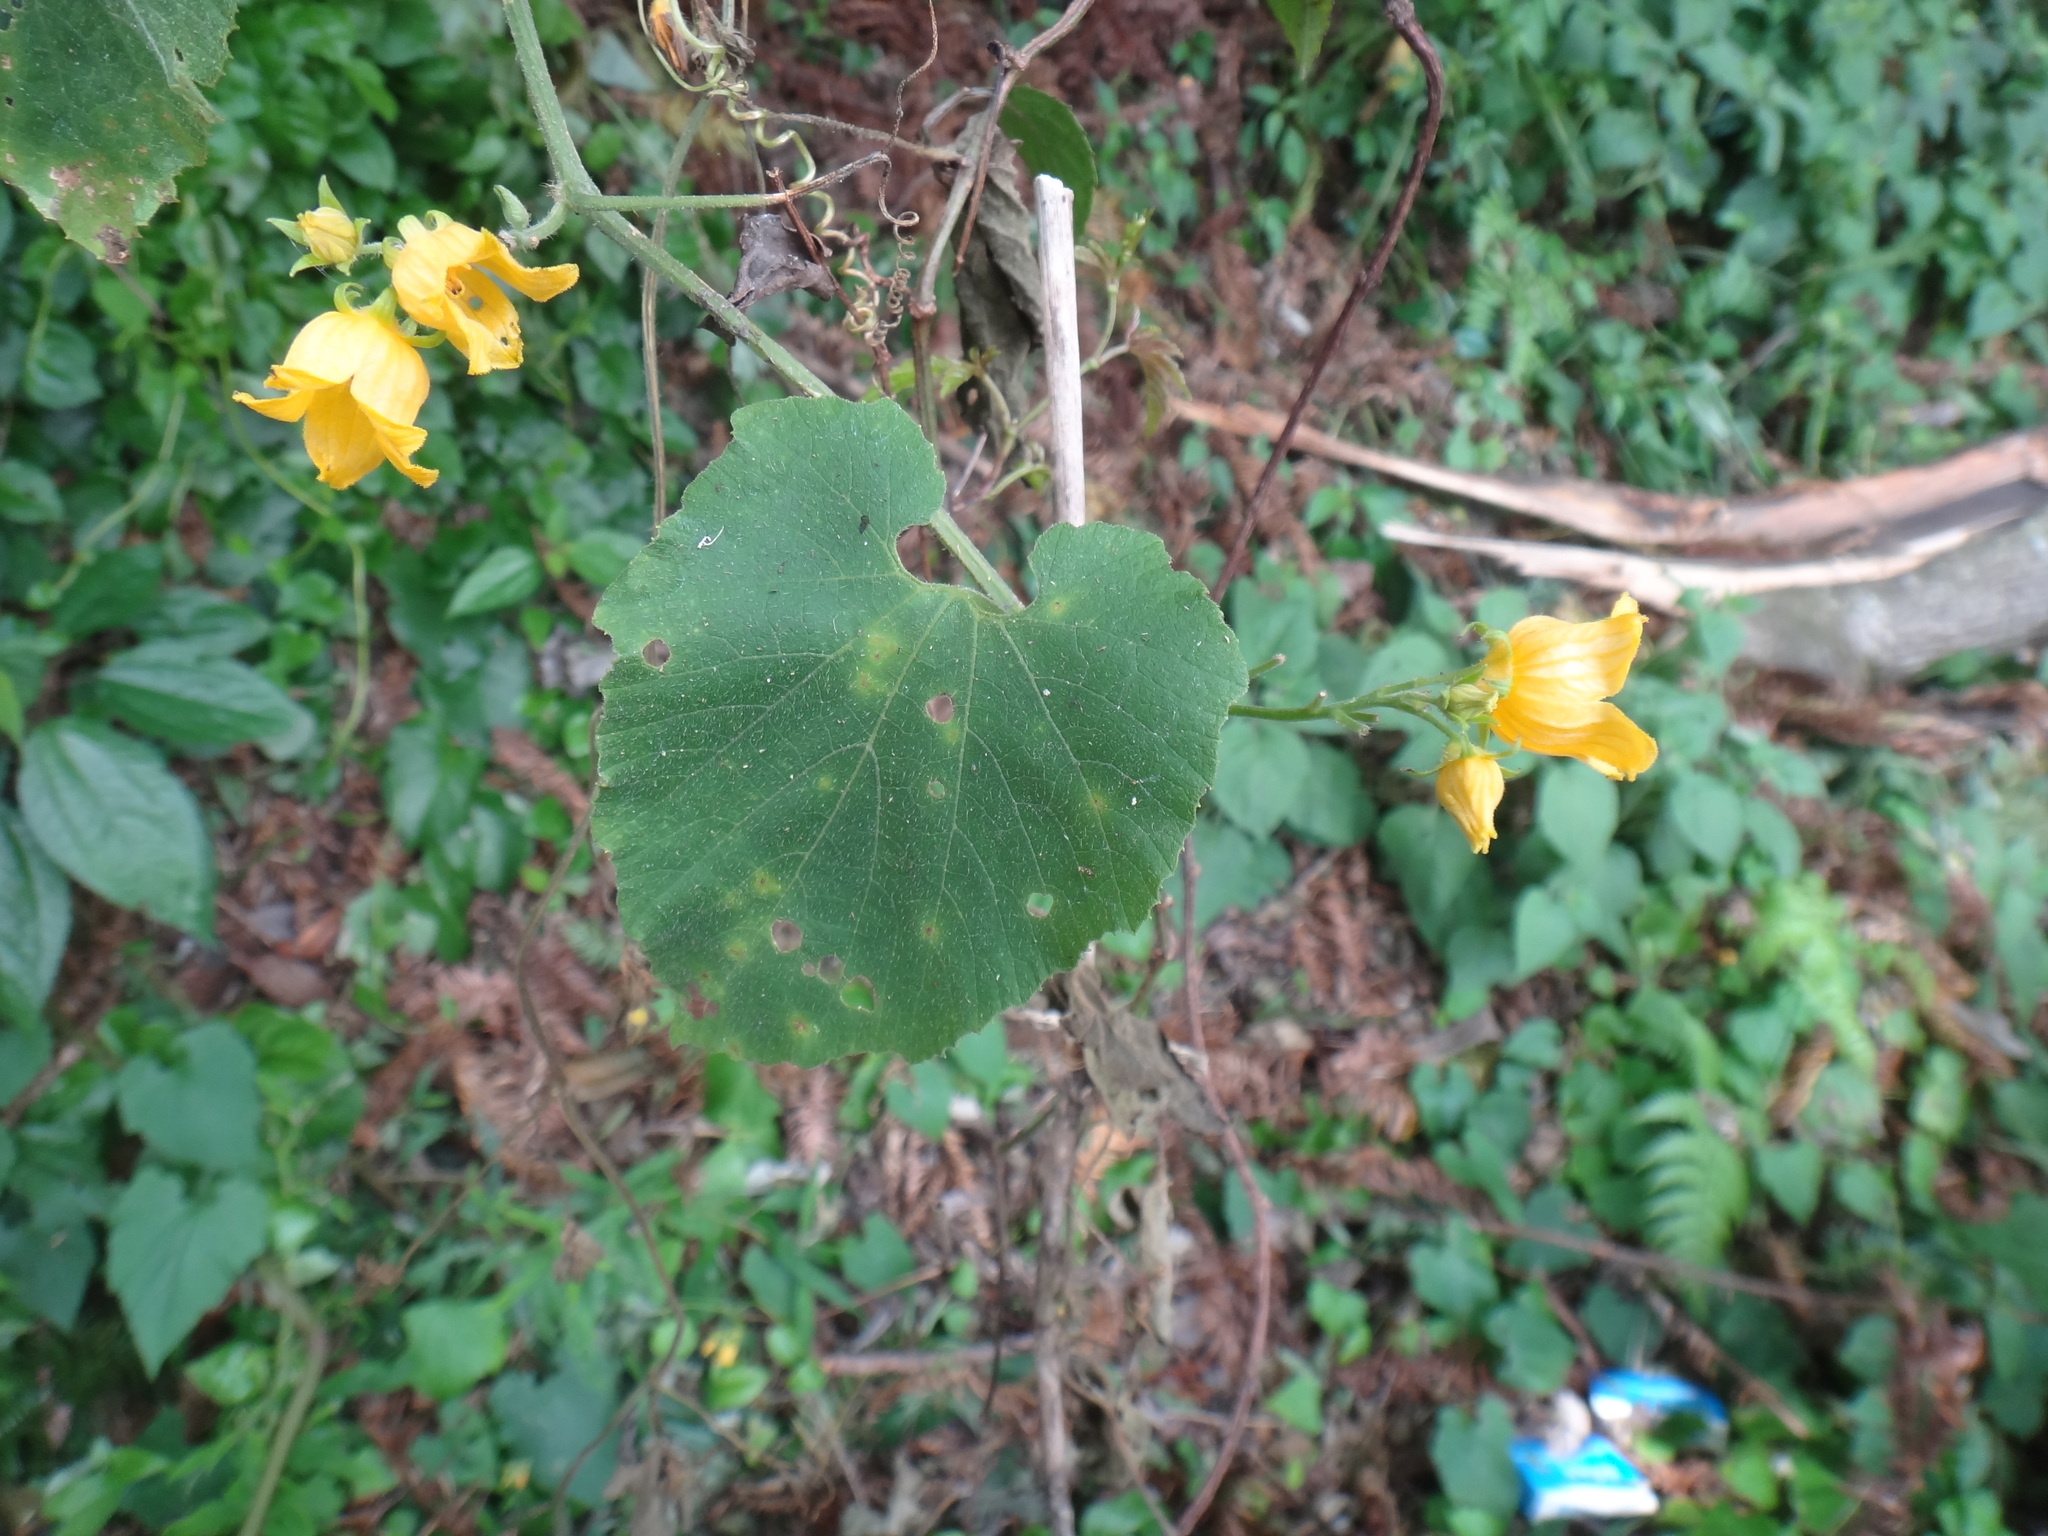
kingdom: Plantae
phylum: Tracheophyta
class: Magnoliopsida
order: Cucurbitales
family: Cucurbitaceae
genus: Thladiantha
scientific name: Thladiantha nudiflora
